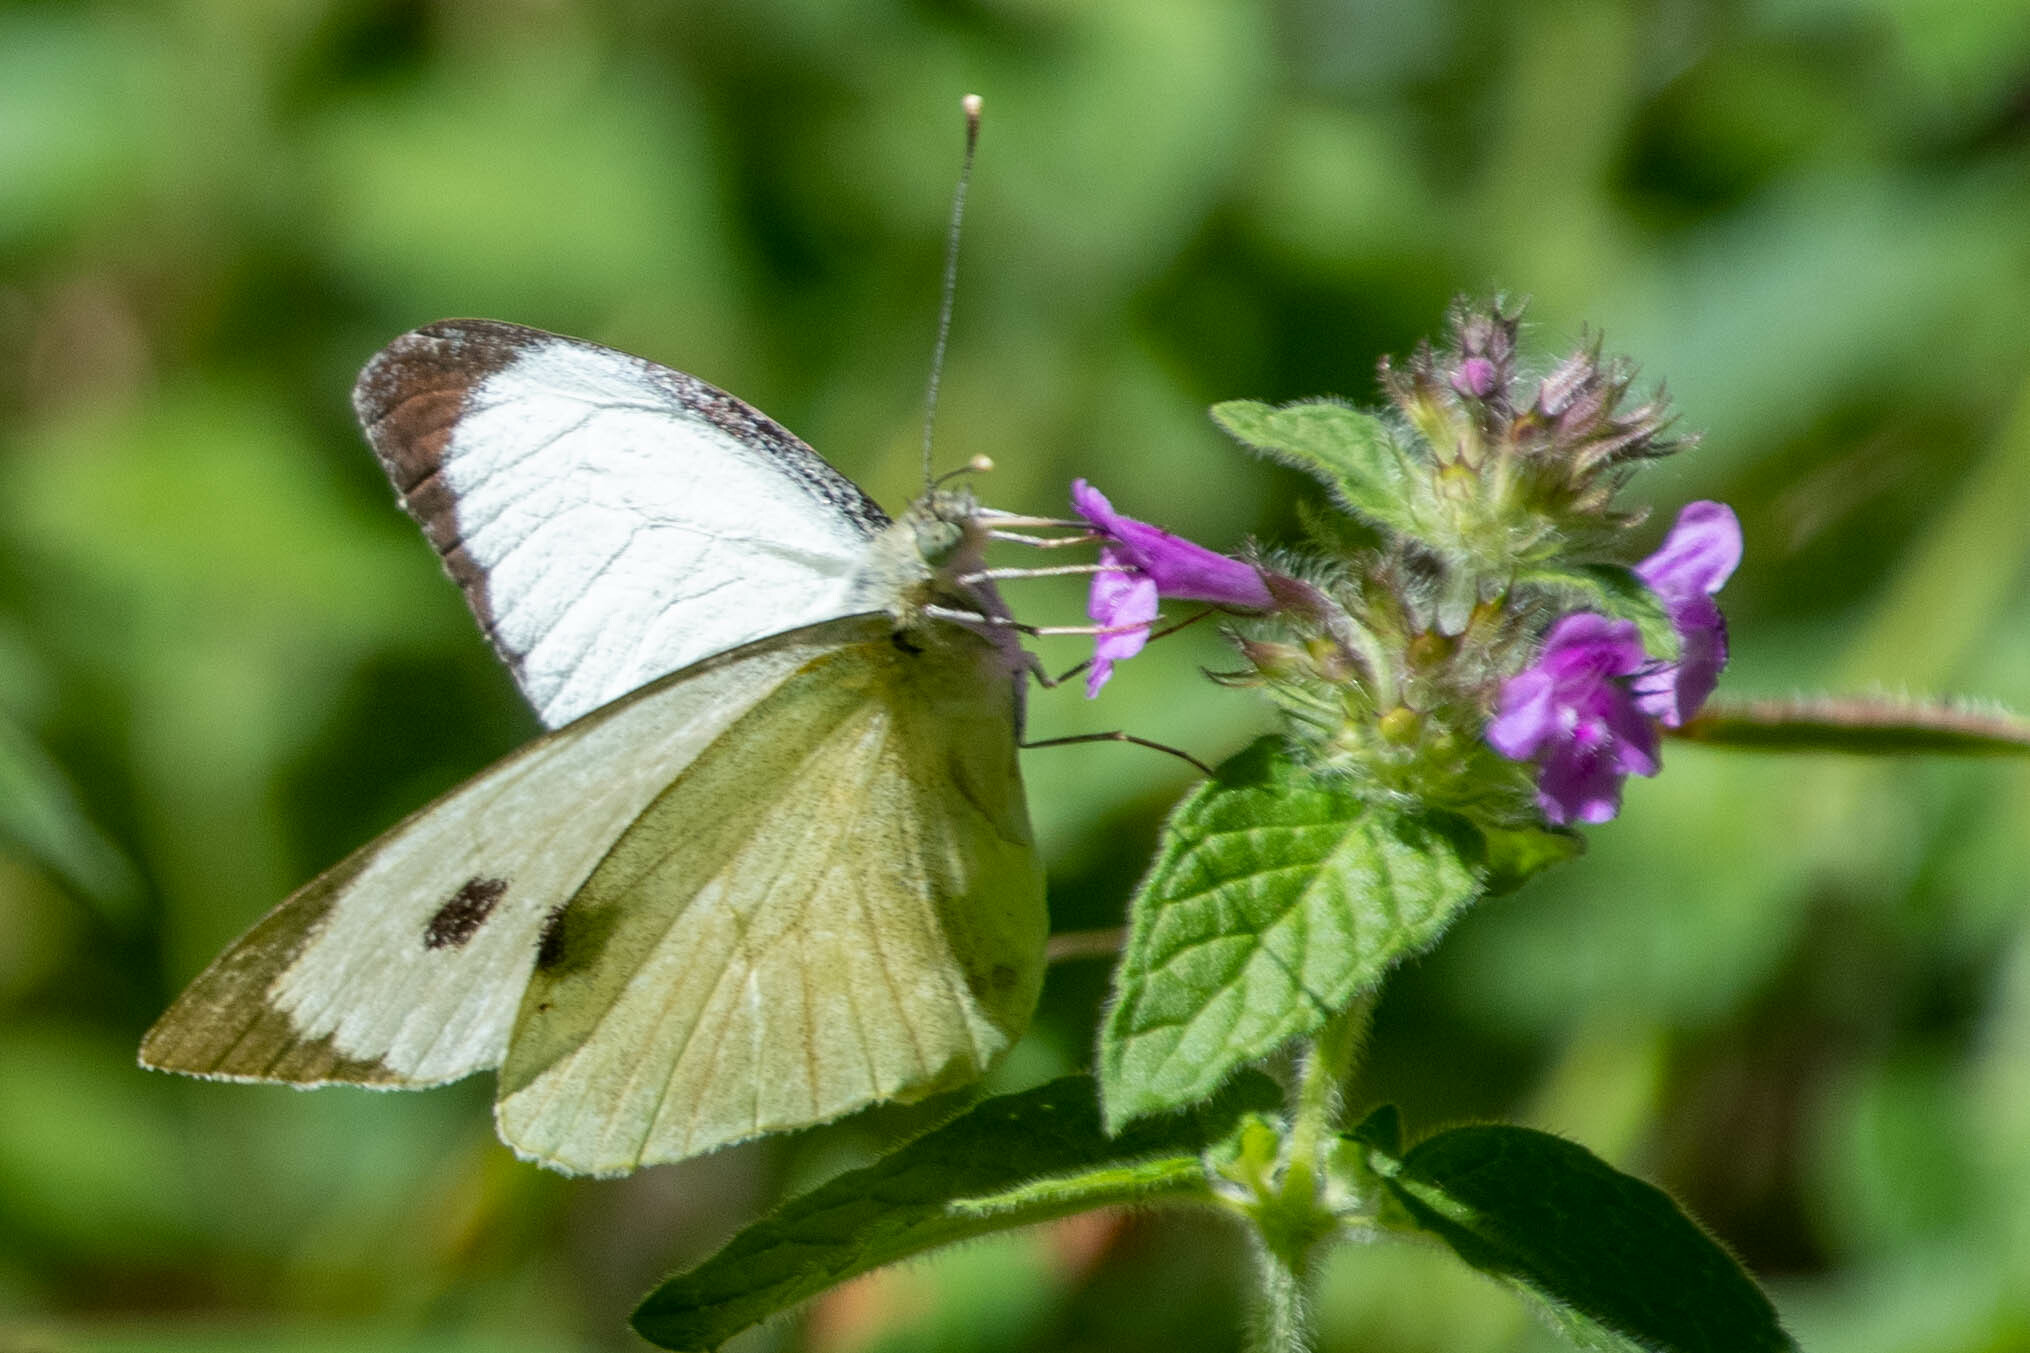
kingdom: Animalia
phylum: Arthropoda
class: Insecta
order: Lepidoptera
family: Pieridae
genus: Pieris
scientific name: Pieris brassicae
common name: Large white
